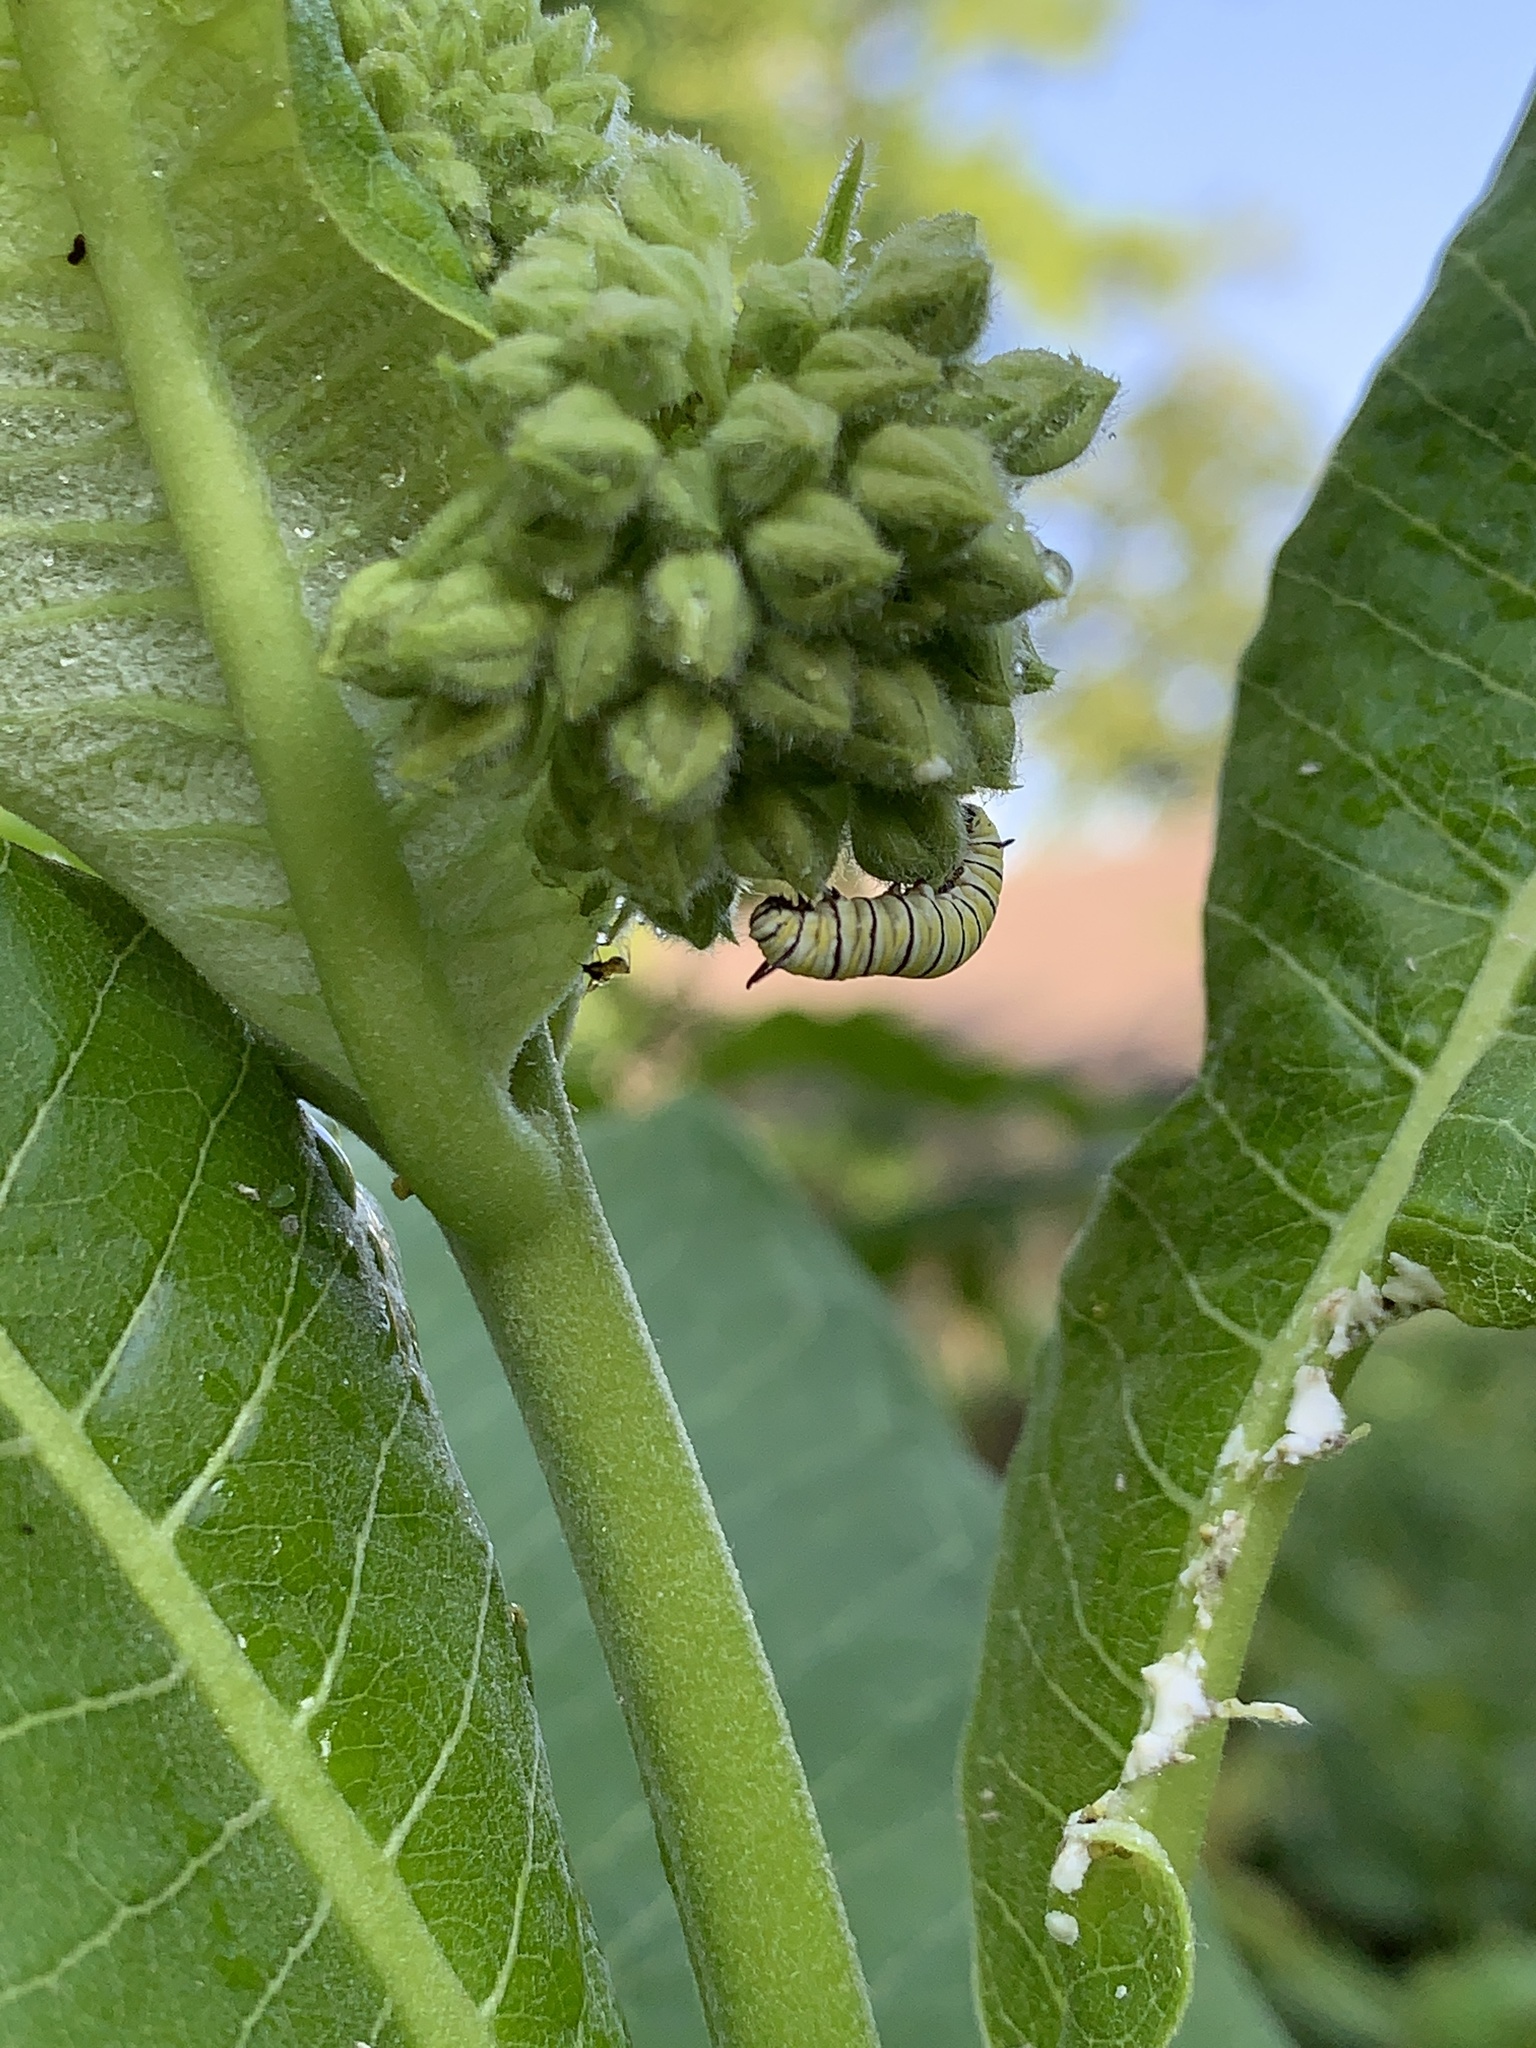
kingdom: Animalia
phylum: Arthropoda
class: Insecta
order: Lepidoptera
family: Nymphalidae
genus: Danaus
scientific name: Danaus plexippus
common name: Monarch
